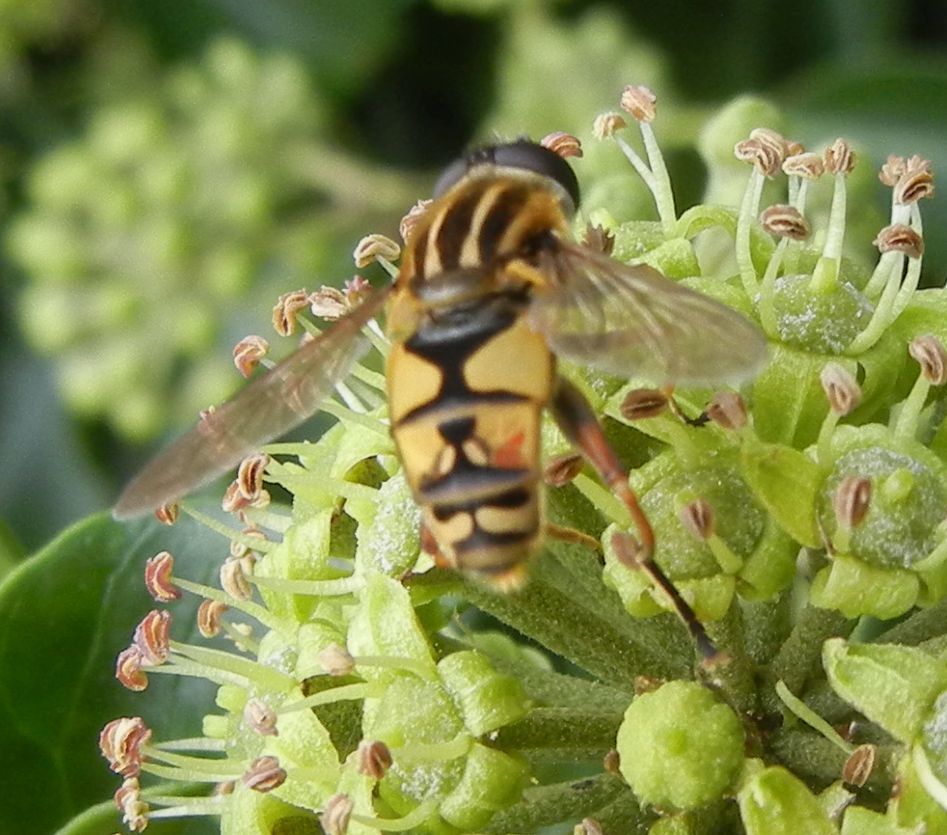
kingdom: Animalia
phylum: Arthropoda
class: Insecta
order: Diptera
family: Syrphidae
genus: Helophilus
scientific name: Helophilus pendulus
